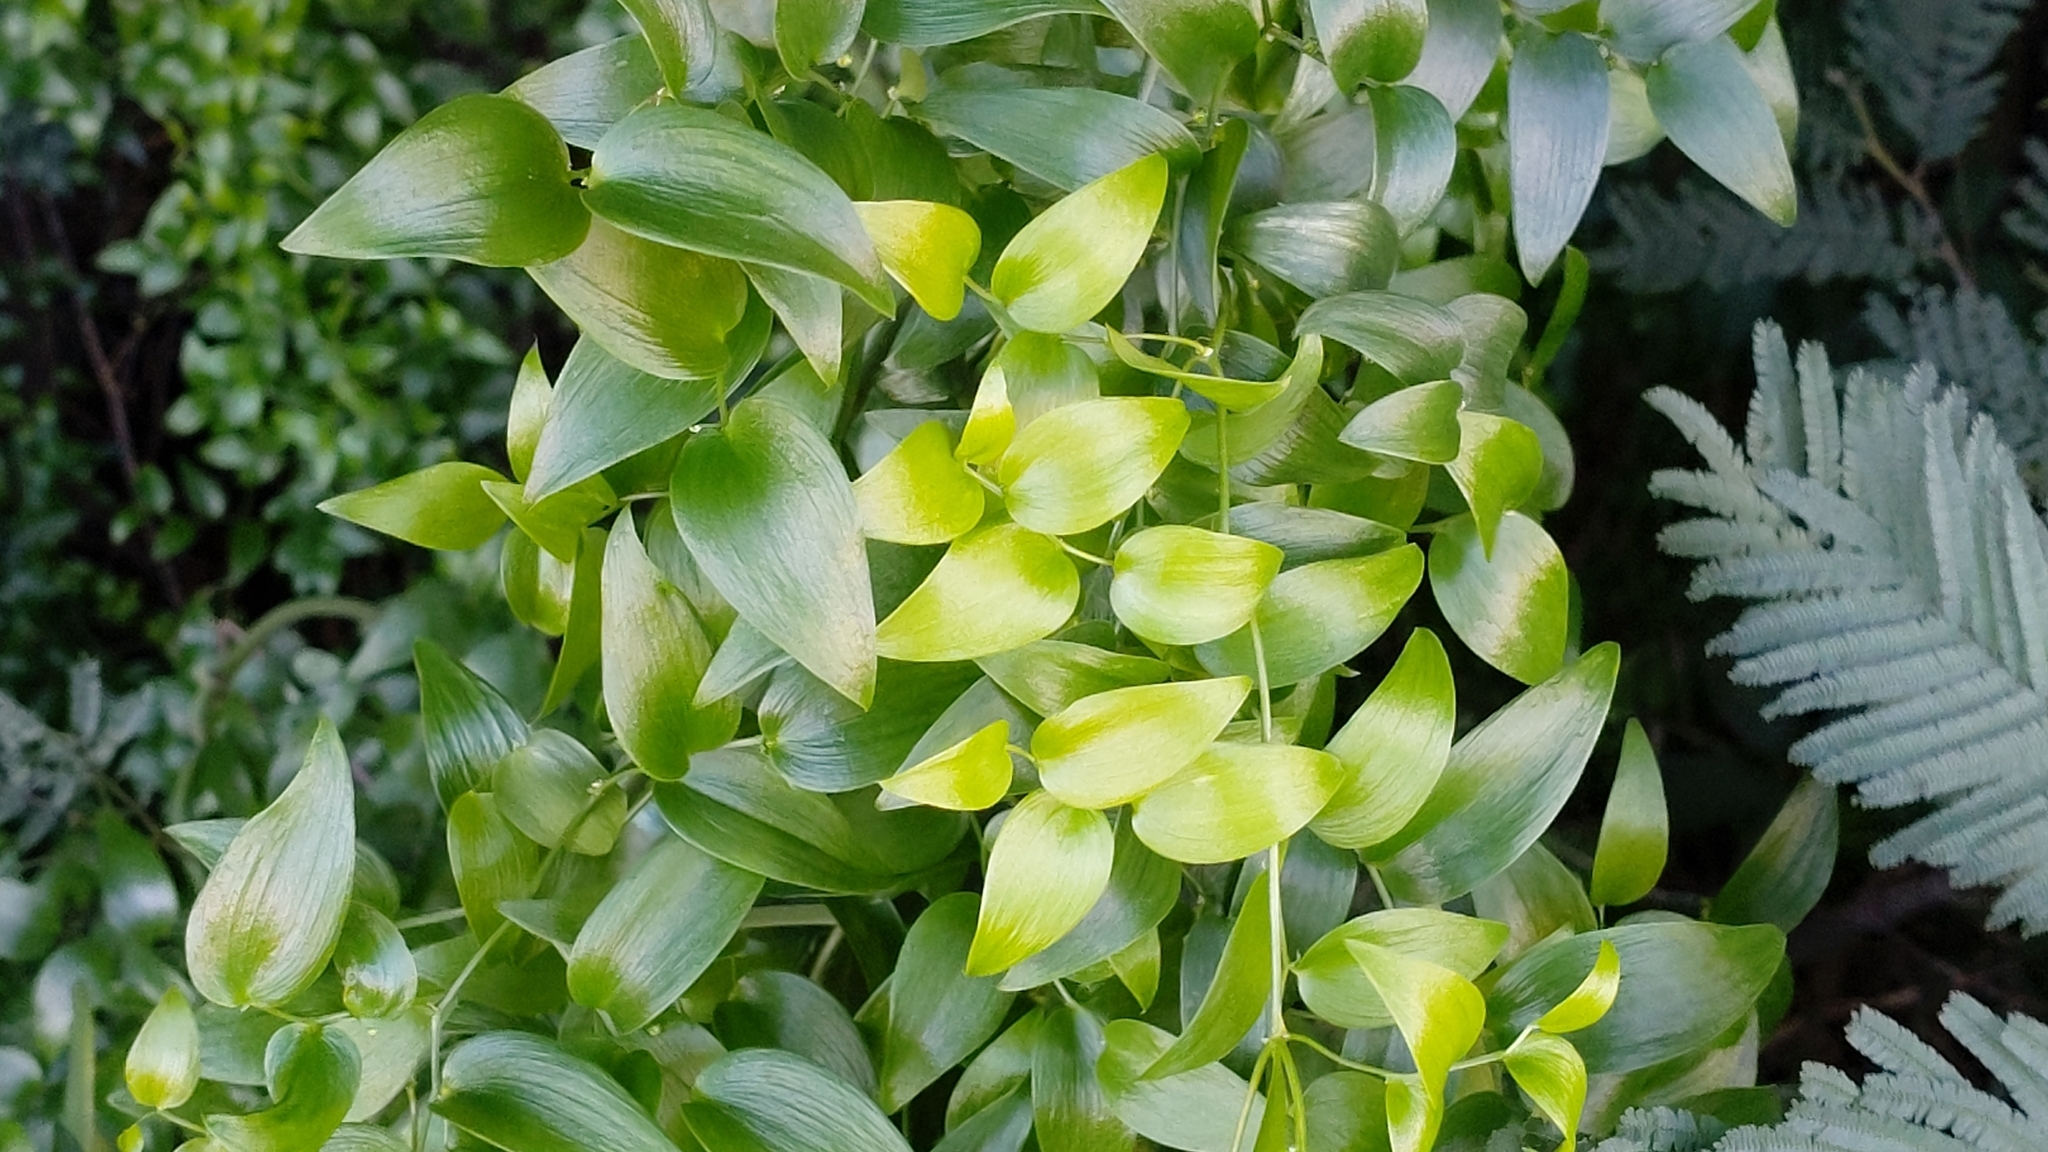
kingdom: Plantae
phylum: Tracheophyta
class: Liliopsida
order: Asparagales
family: Asparagaceae
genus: Asparagus
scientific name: Asparagus asparagoides
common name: African asparagus fern
